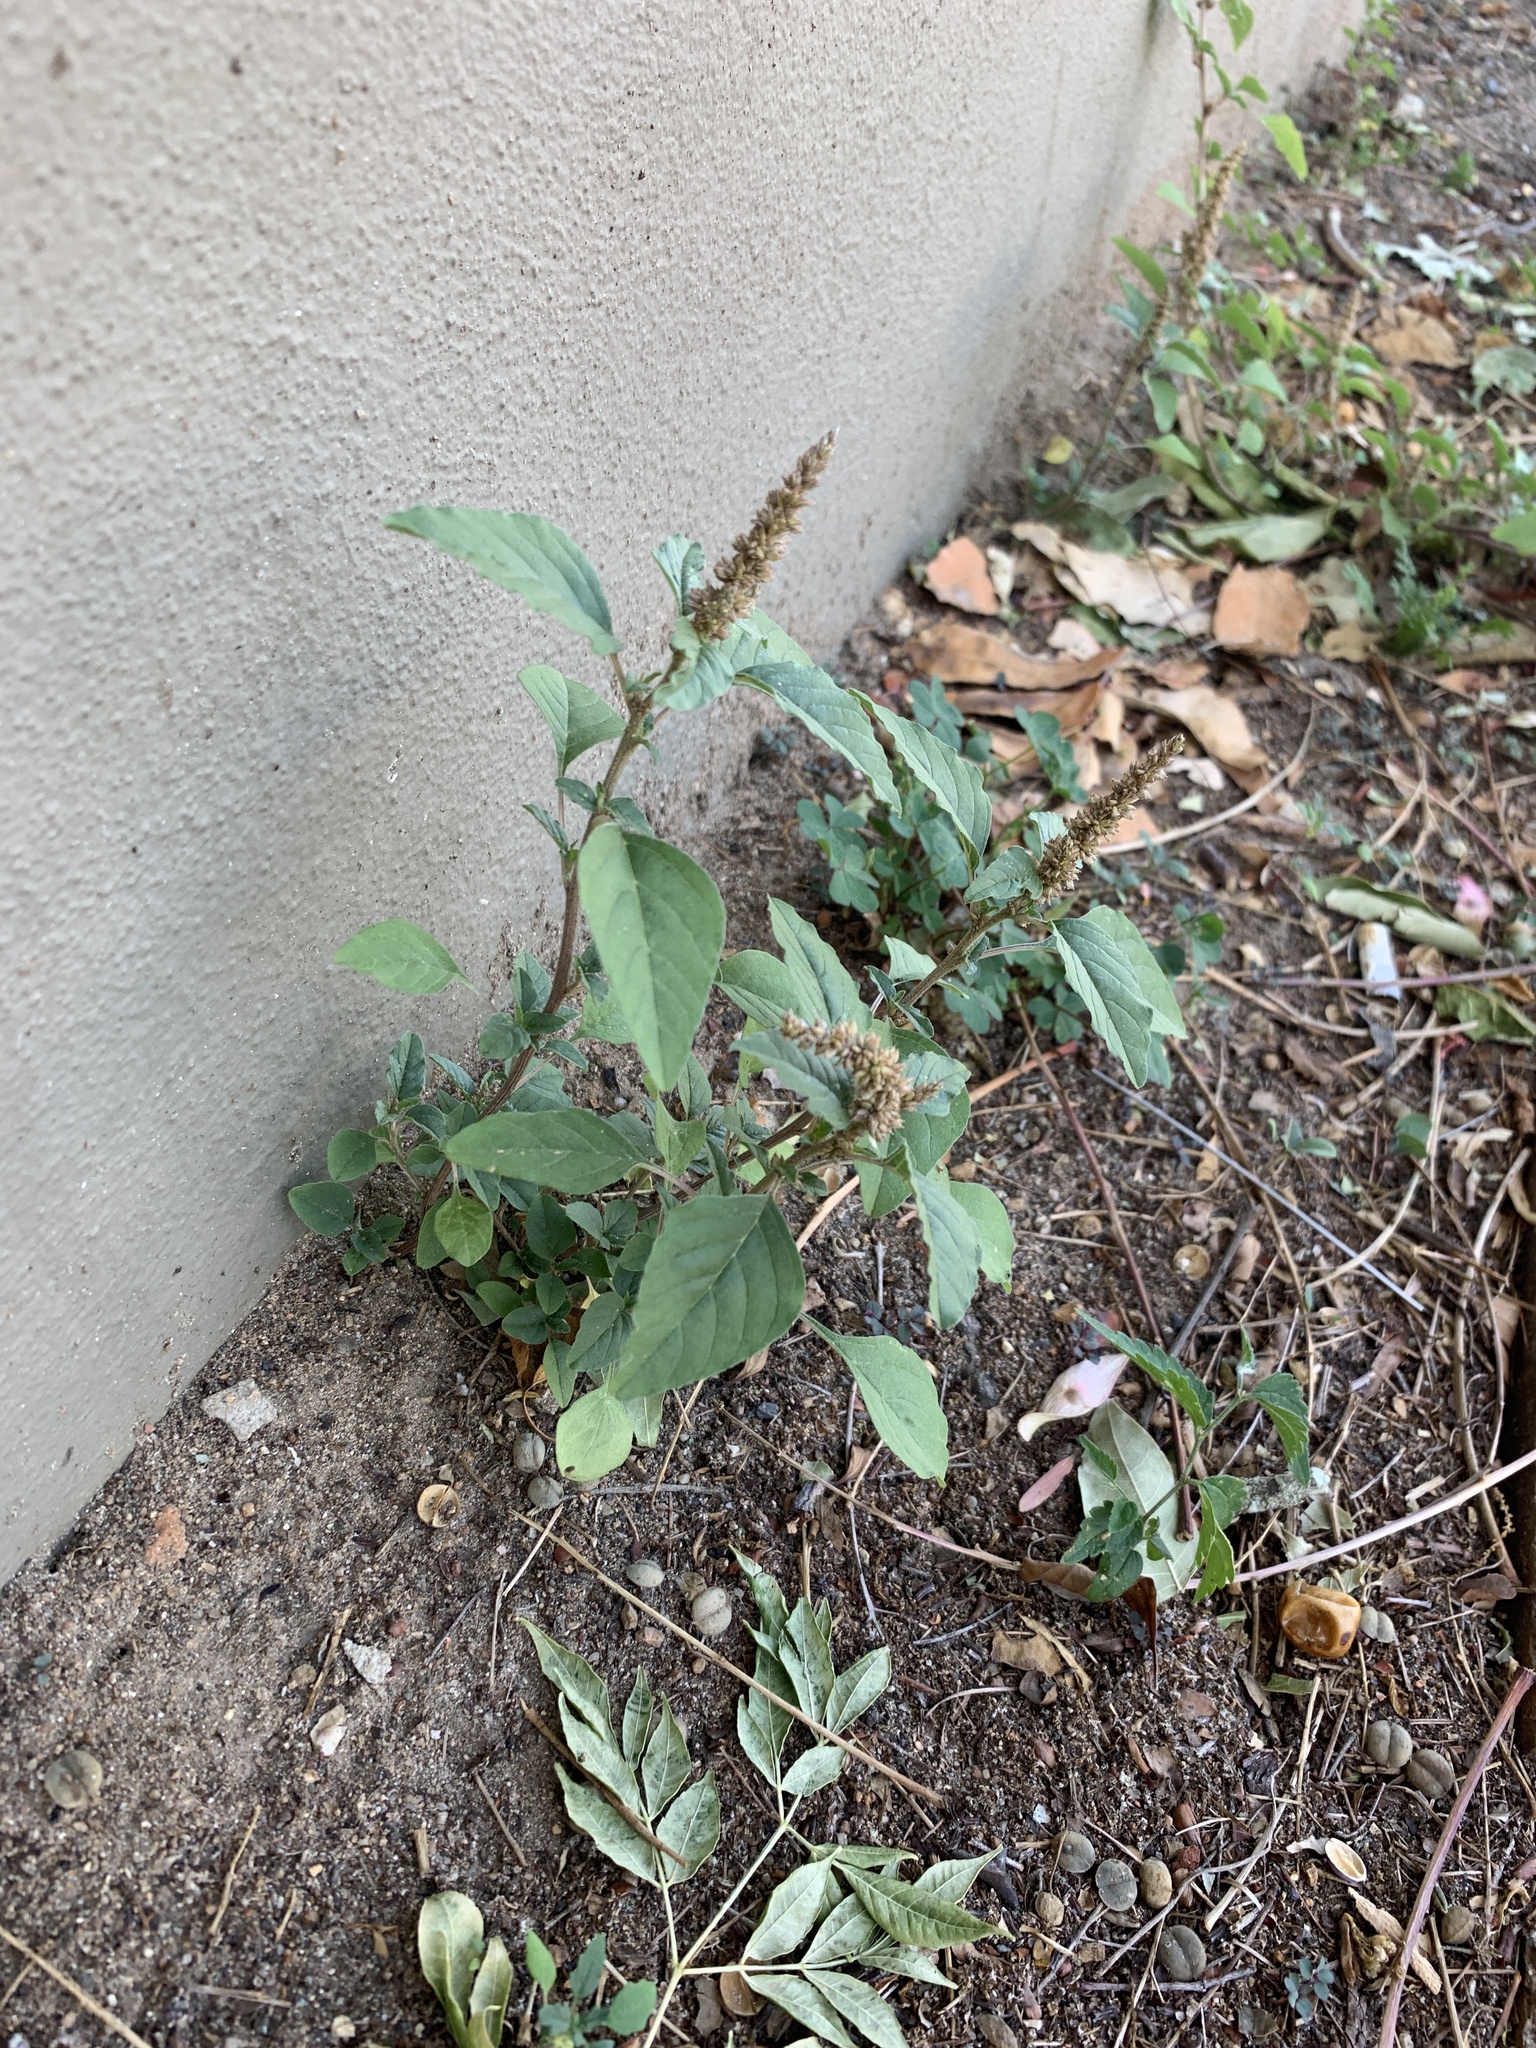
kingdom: Plantae
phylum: Tracheophyta
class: Magnoliopsida
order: Caryophyllales
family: Amaranthaceae
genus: Amaranthus
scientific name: Amaranthus deflexus
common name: Perennial pigweed
